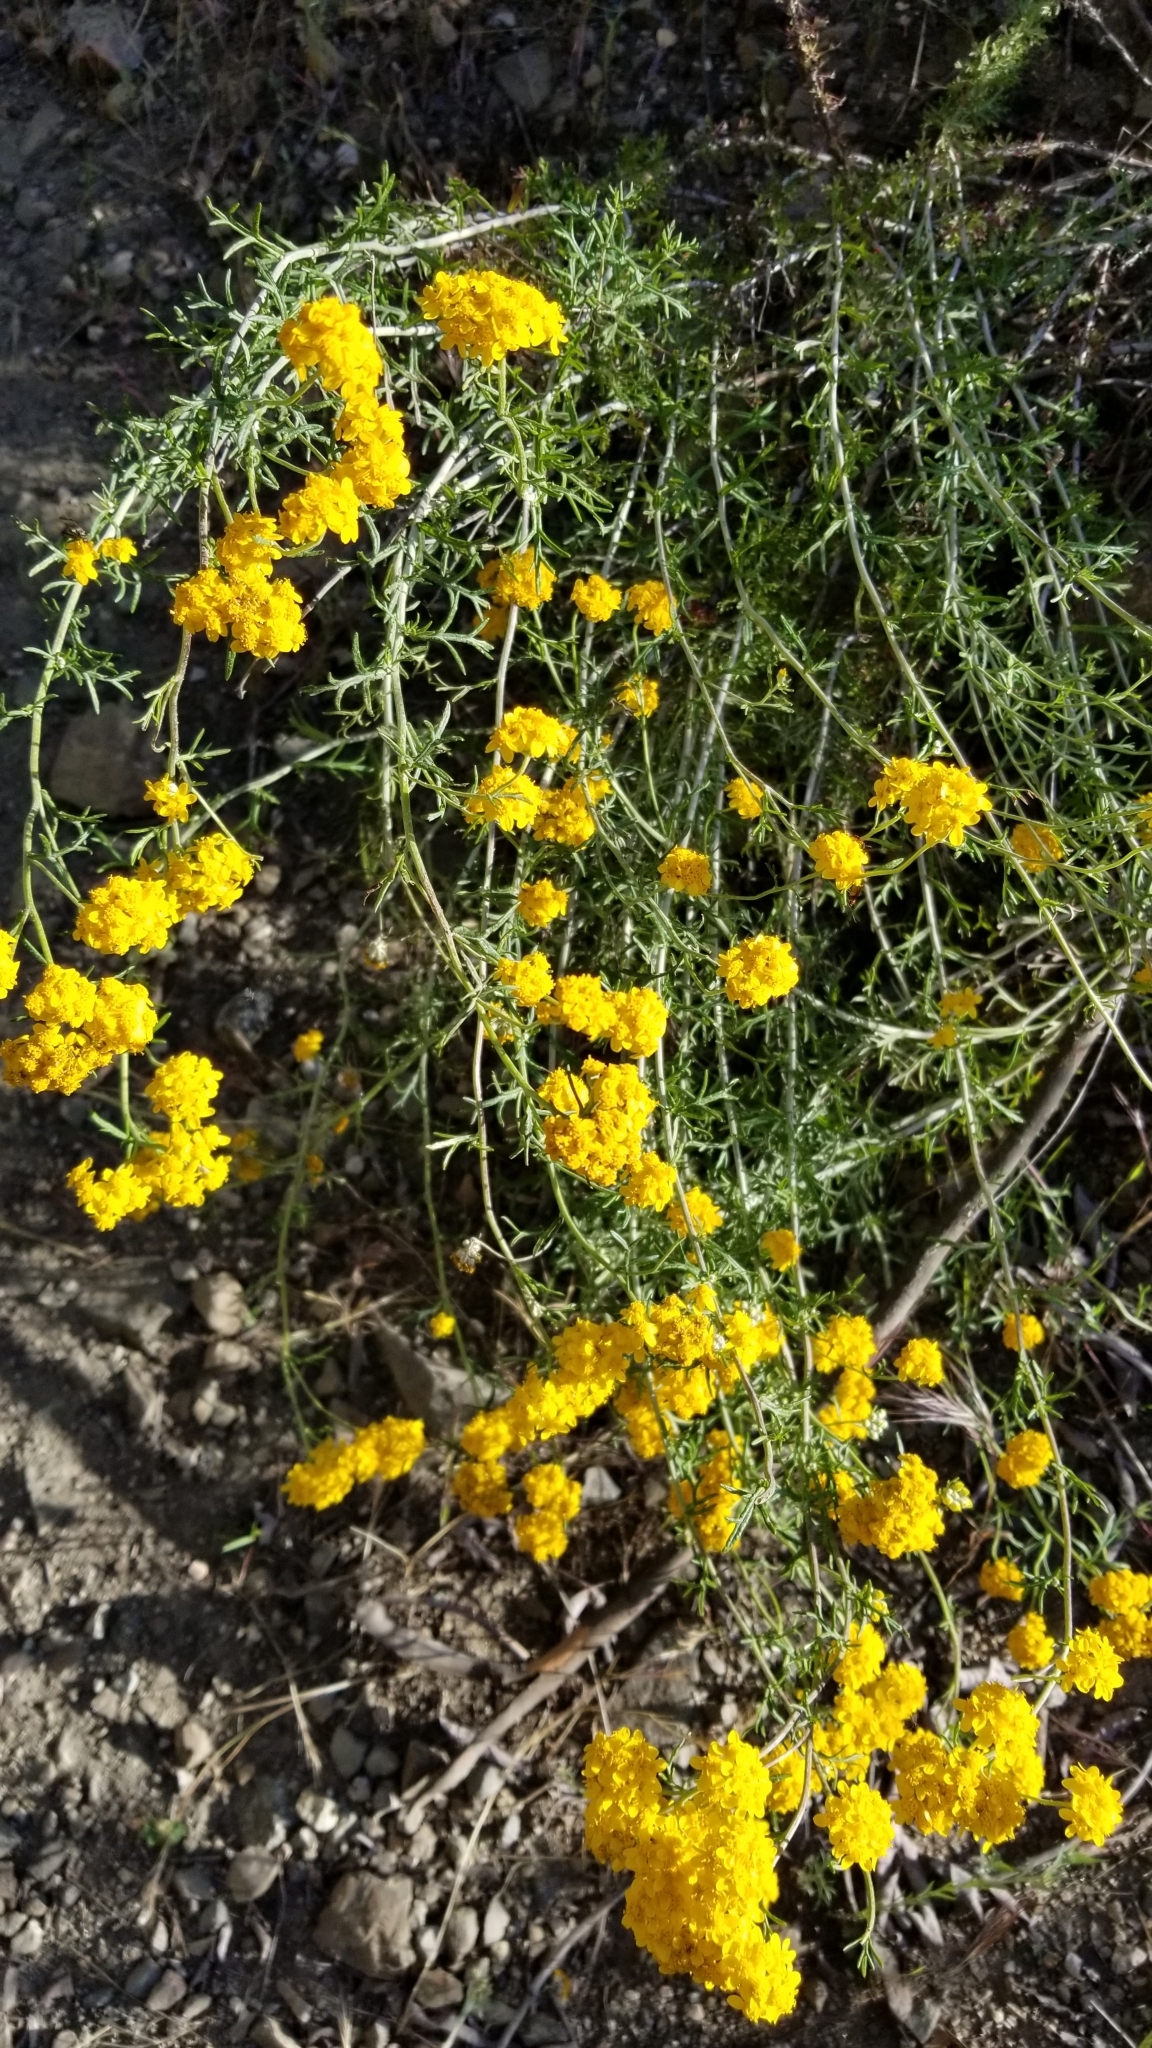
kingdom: Plantae
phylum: Tracheophyta
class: Magnoliopsida
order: Asterales
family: Asteraceae
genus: Eriophyllum
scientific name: Eriophyllum confertiflorum
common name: Golden-yarrow
